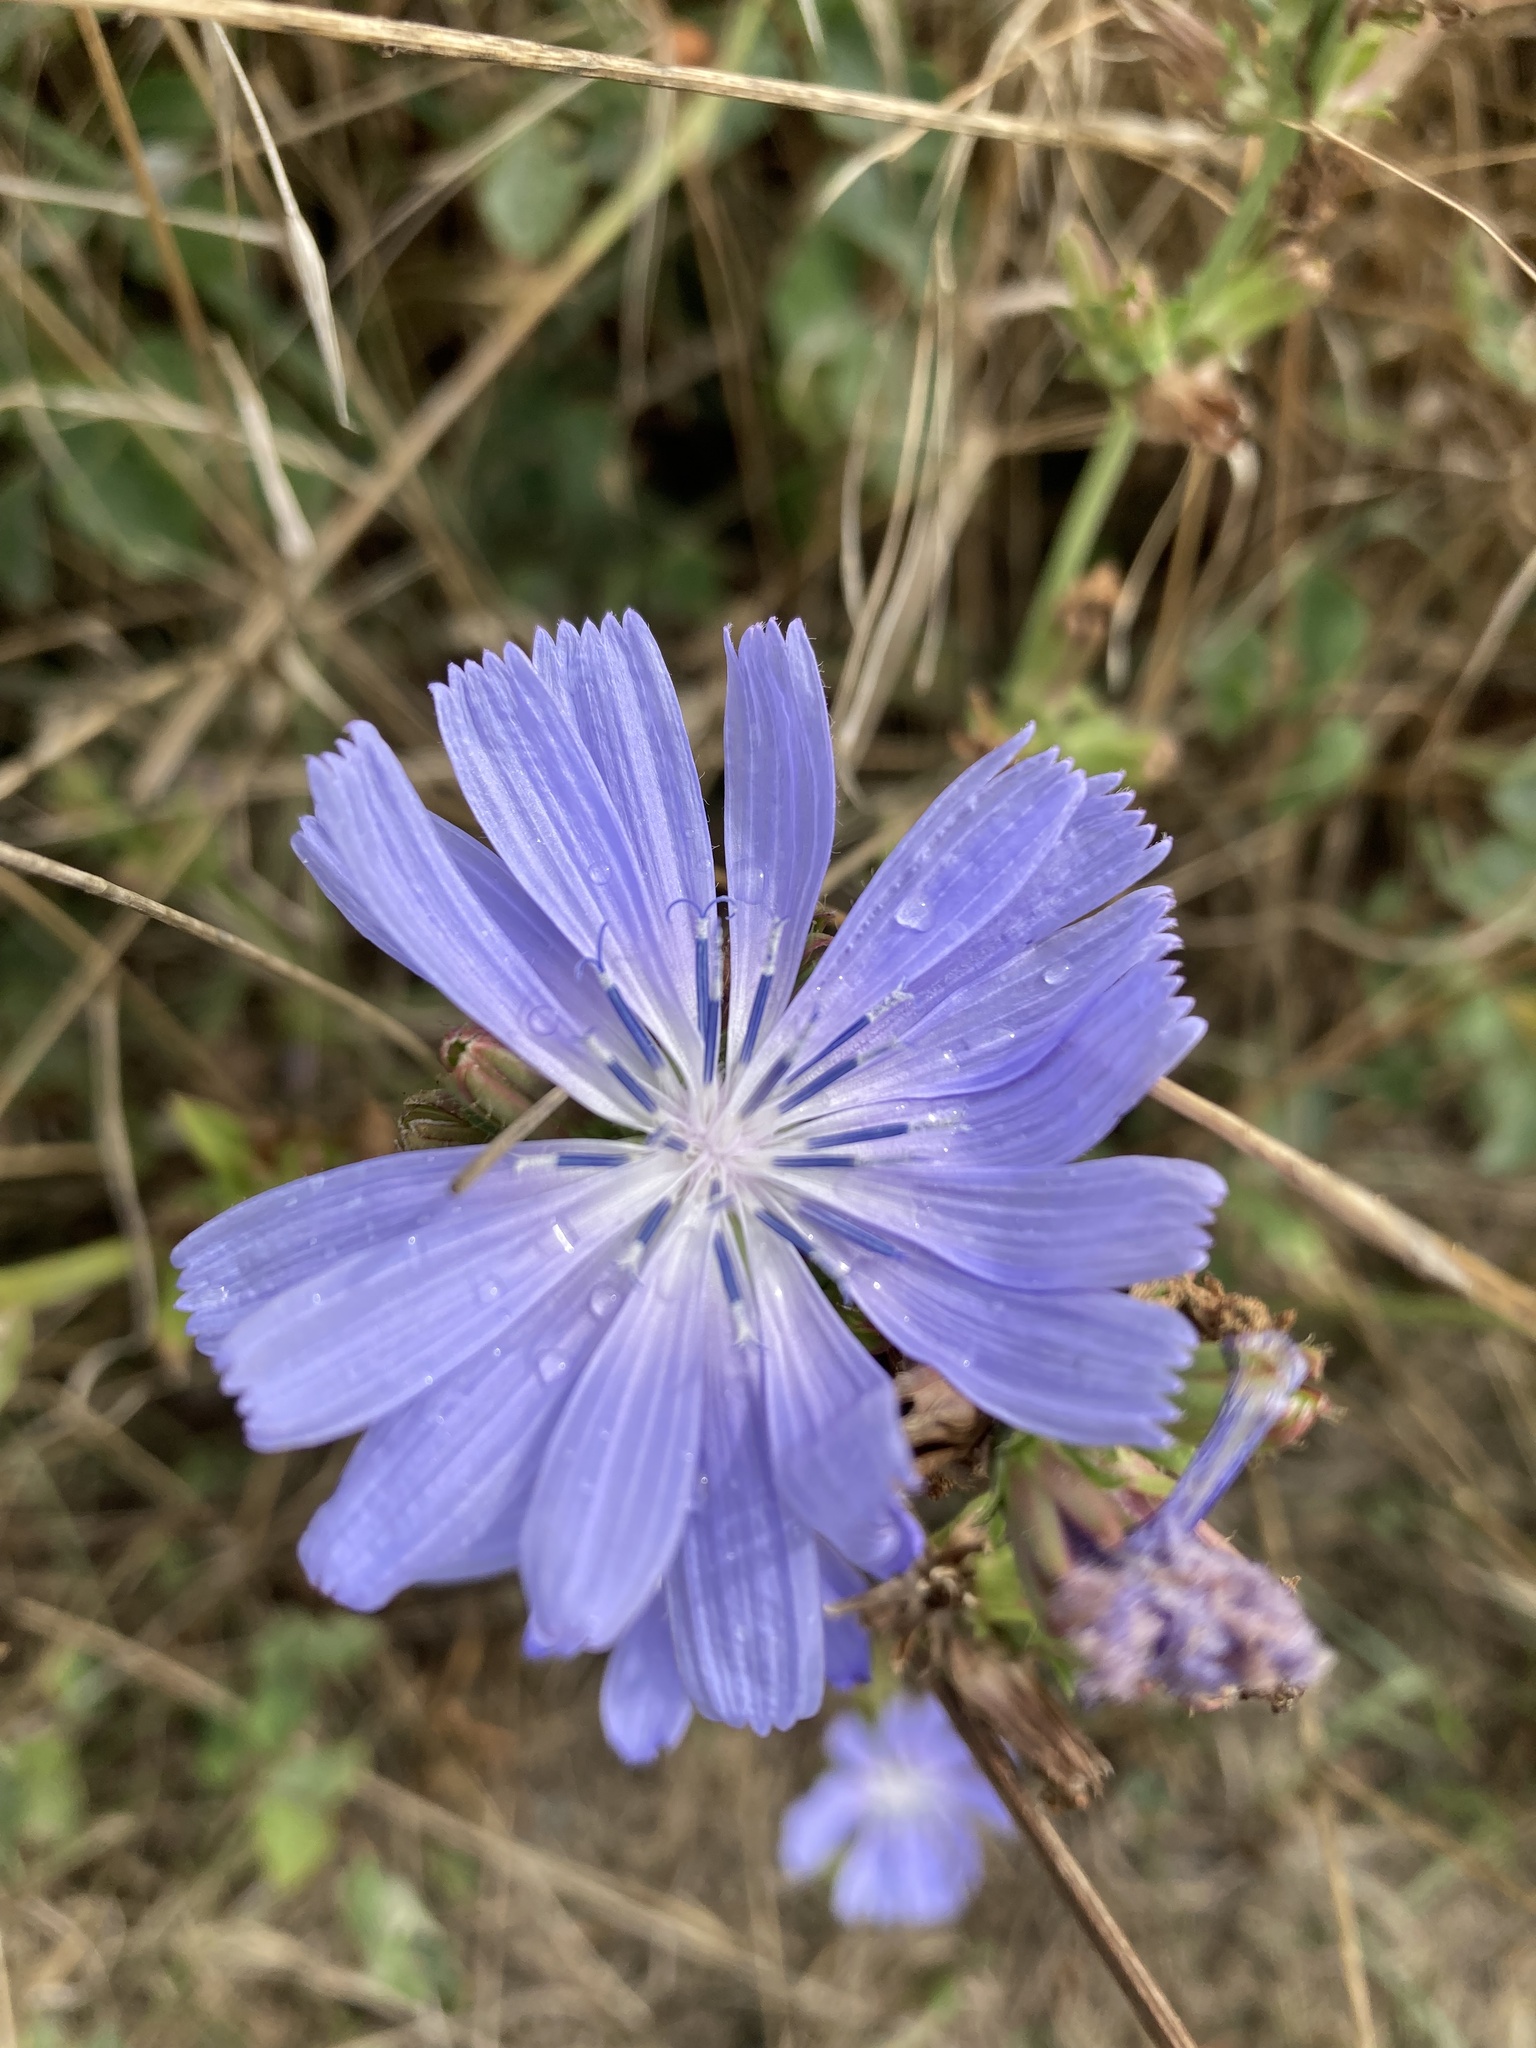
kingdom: Plantae
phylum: Tracheophyta
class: Magnoliopsida
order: Asterales
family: Asteraceae
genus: Cichorium
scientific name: Cichorium intybus
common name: Chicory
